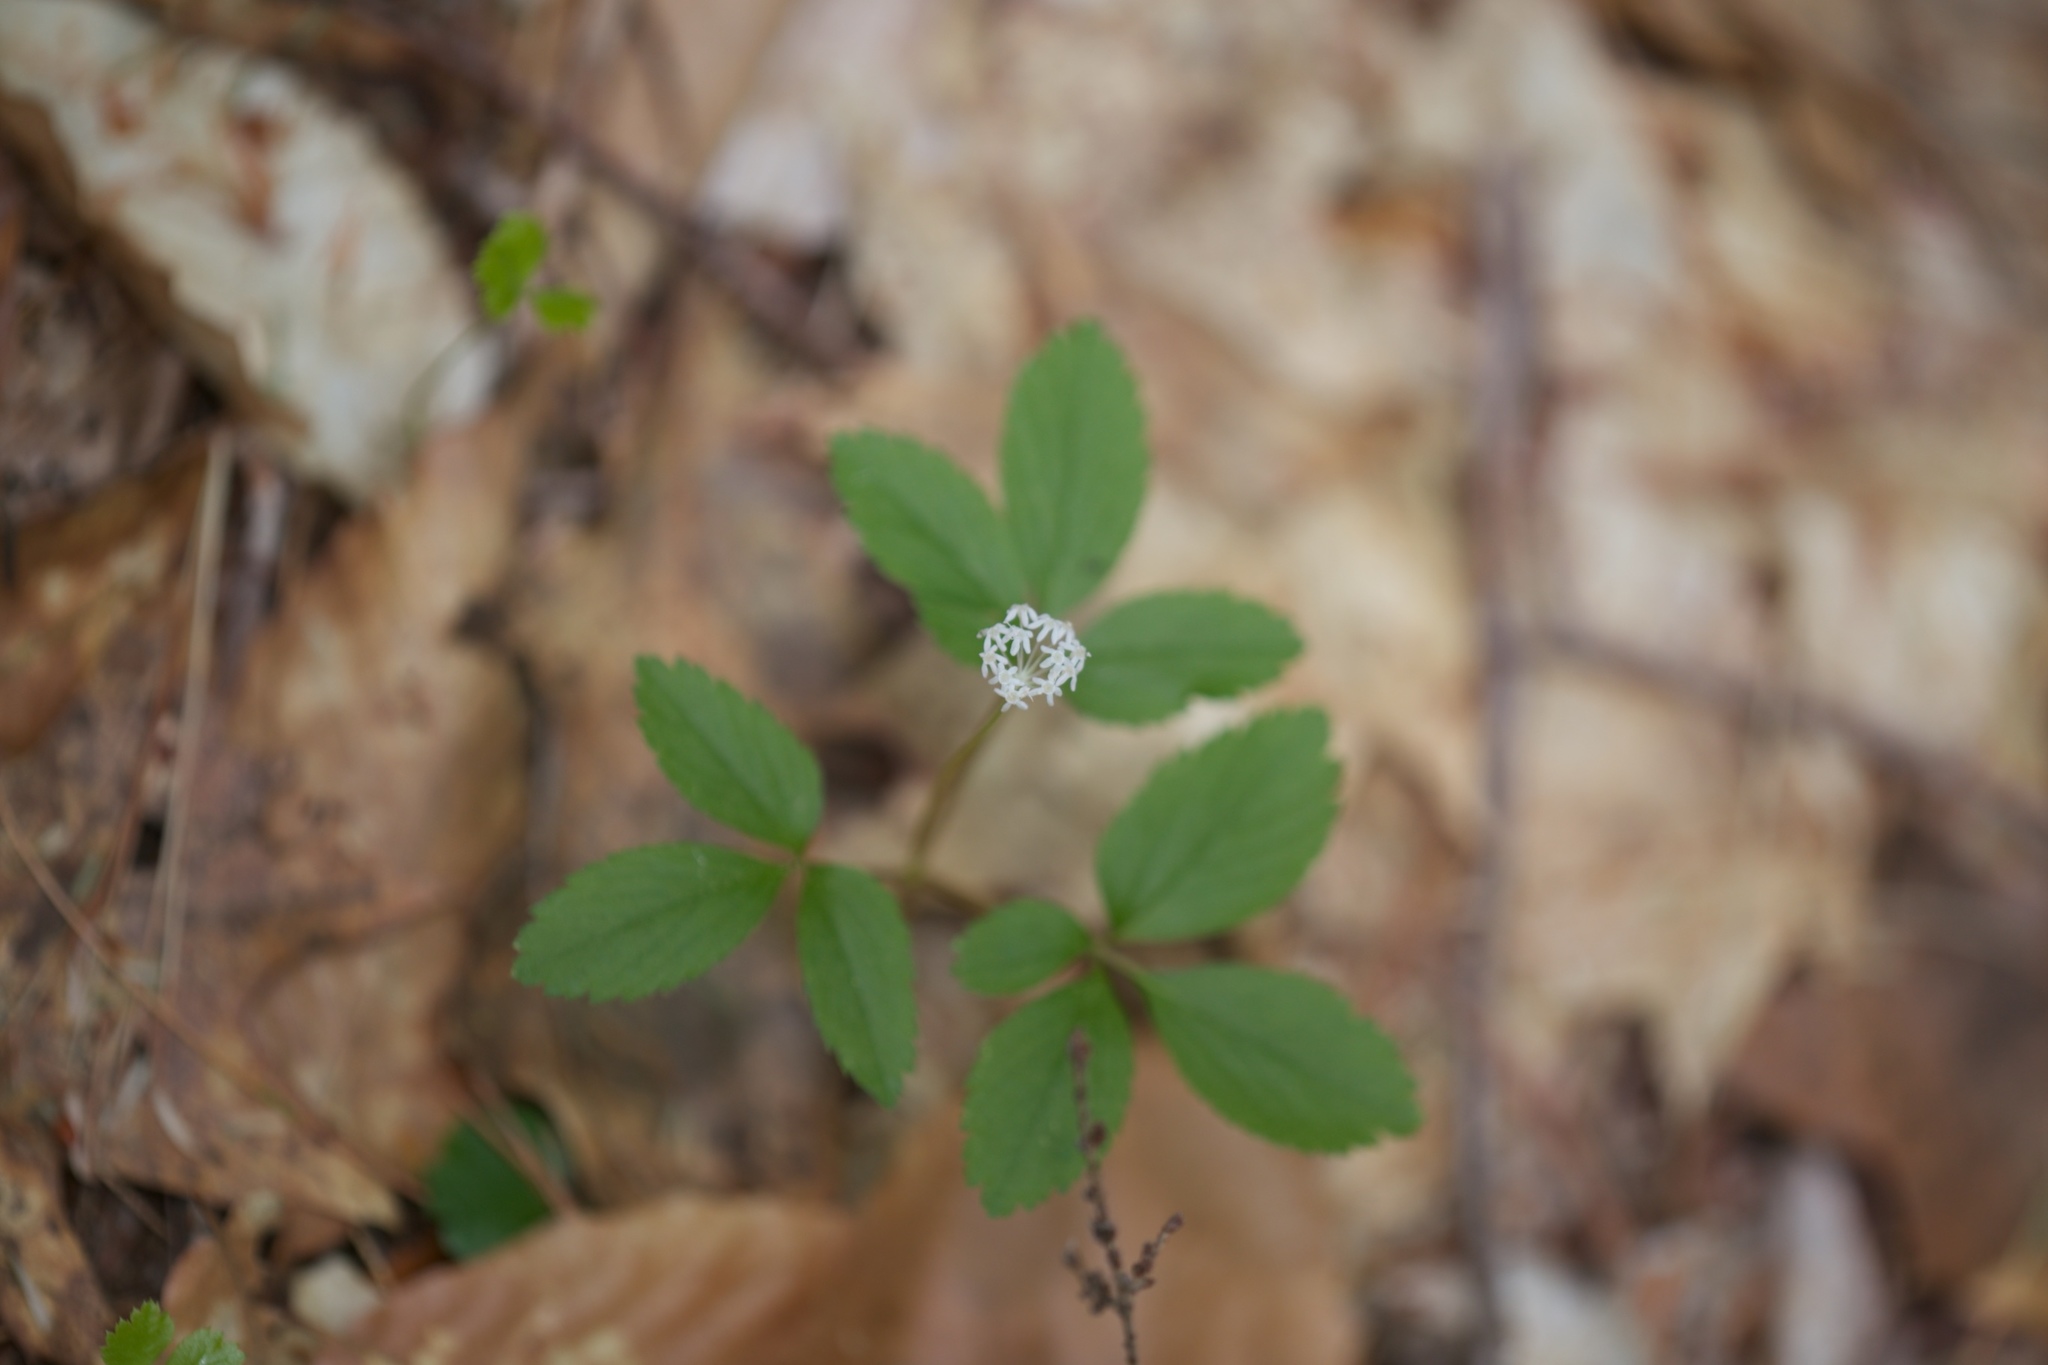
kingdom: Plantae
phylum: Tracheophyta
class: Magnoliopsida
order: Apiales
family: Araliaceae
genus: Panax
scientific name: Panax trifolius
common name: Dwarf ginseng
